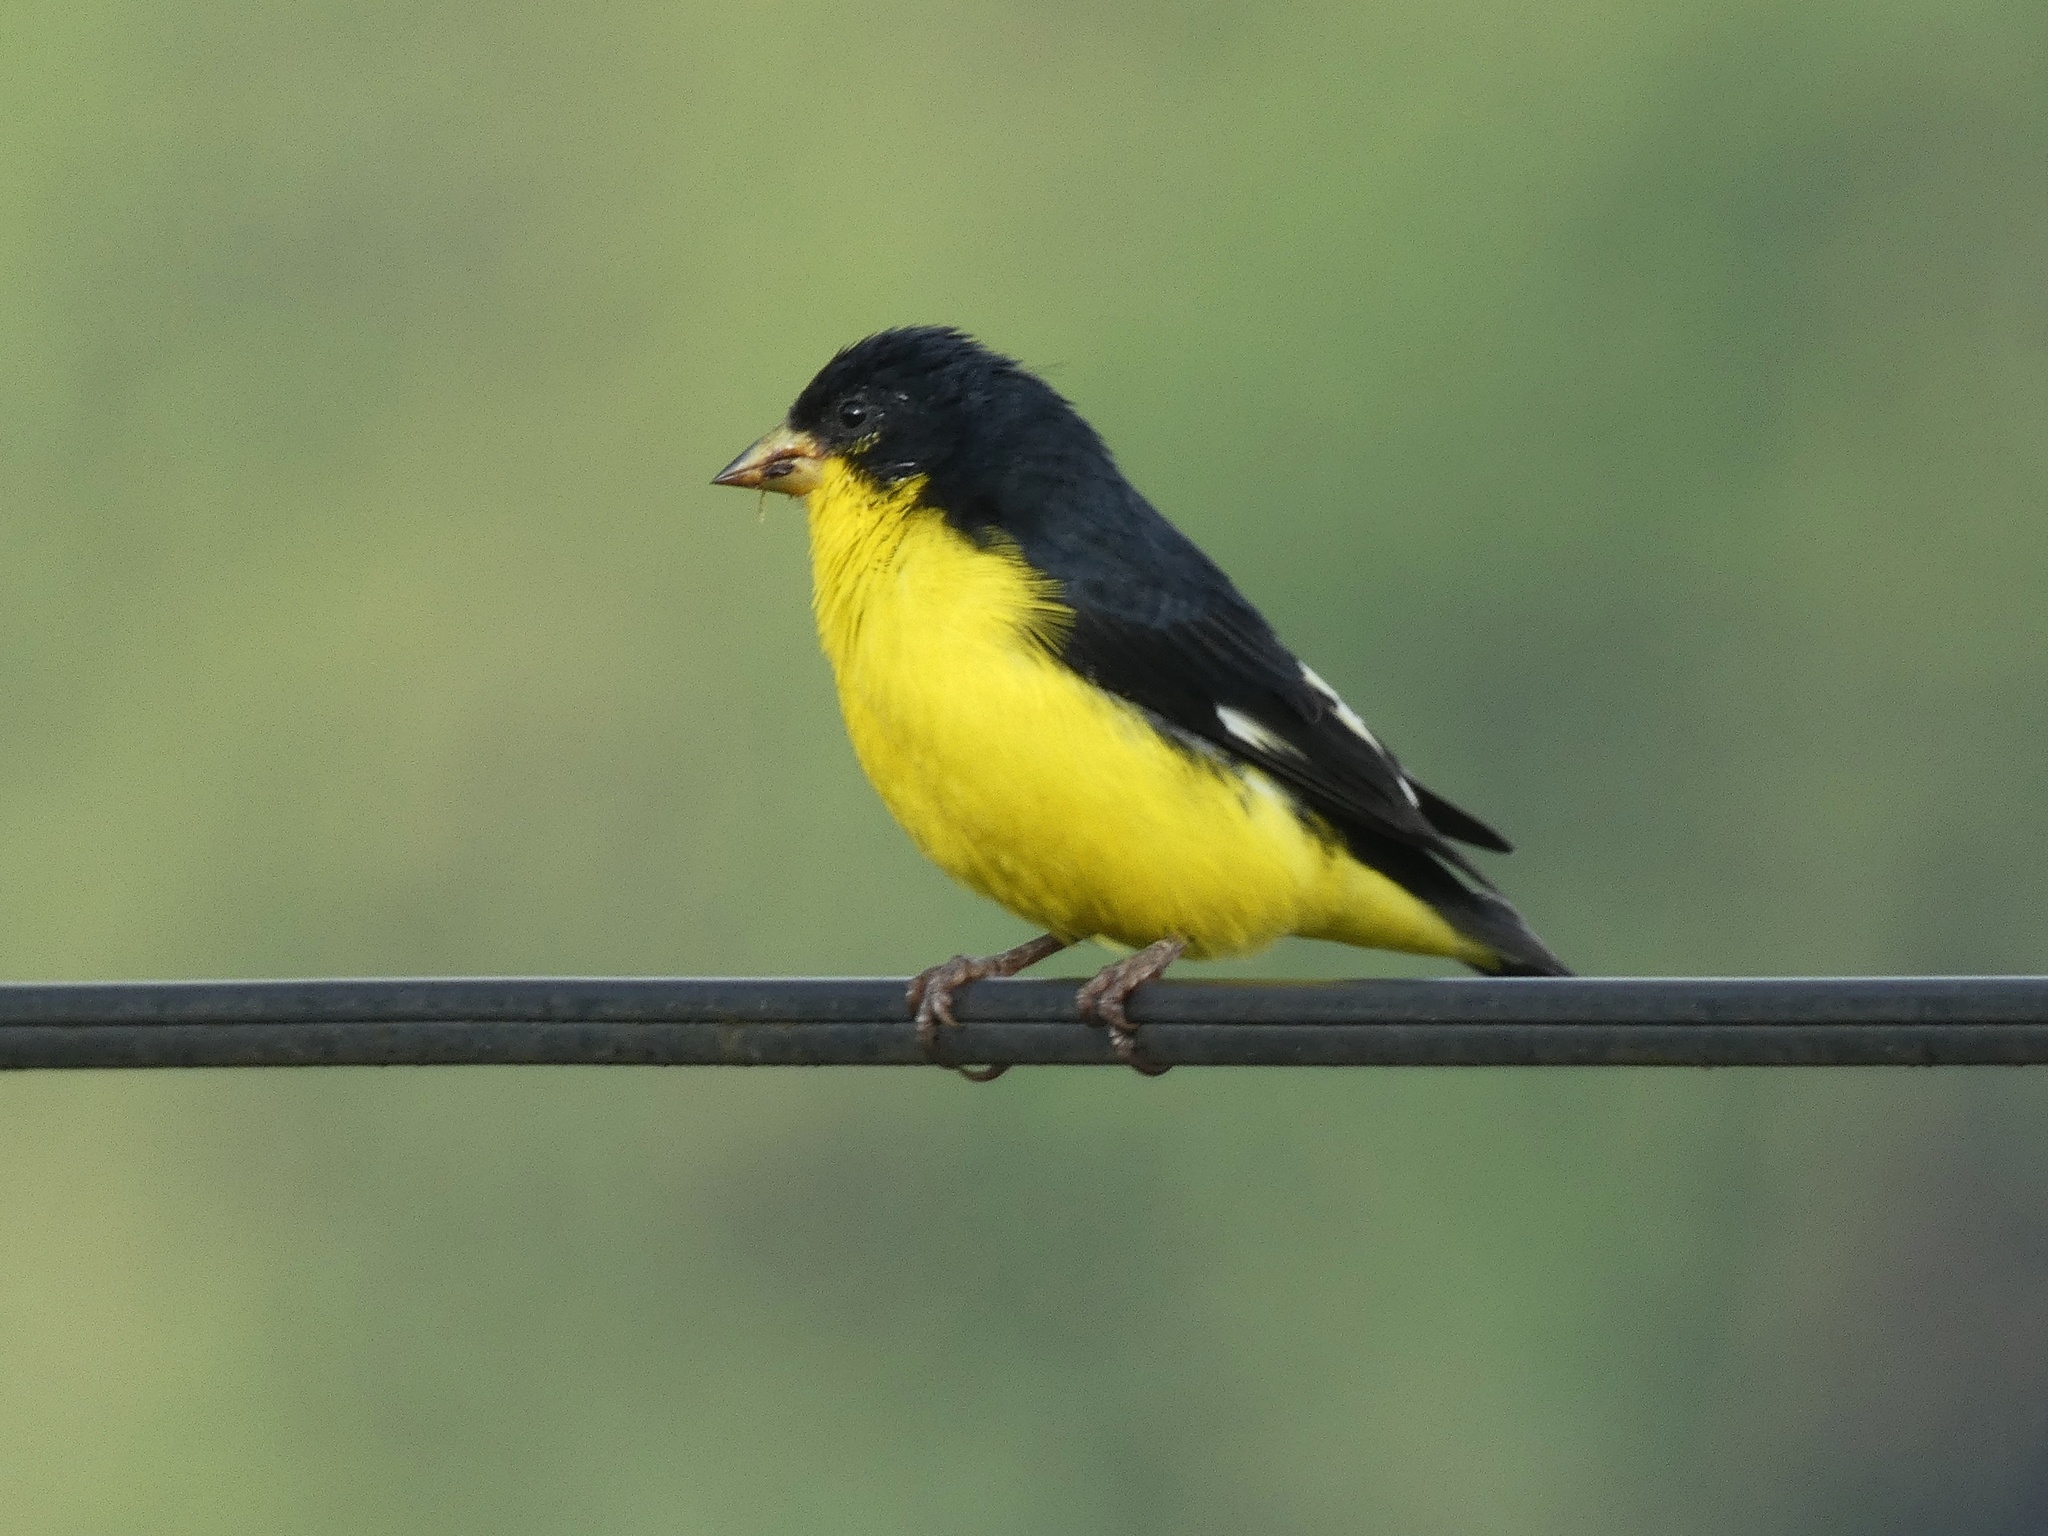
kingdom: Animalia
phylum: Chordata
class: Aves
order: Passeriformes
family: Fringillidae
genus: Spinus
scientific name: Spinus psaltria
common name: Lesser goldfinch
